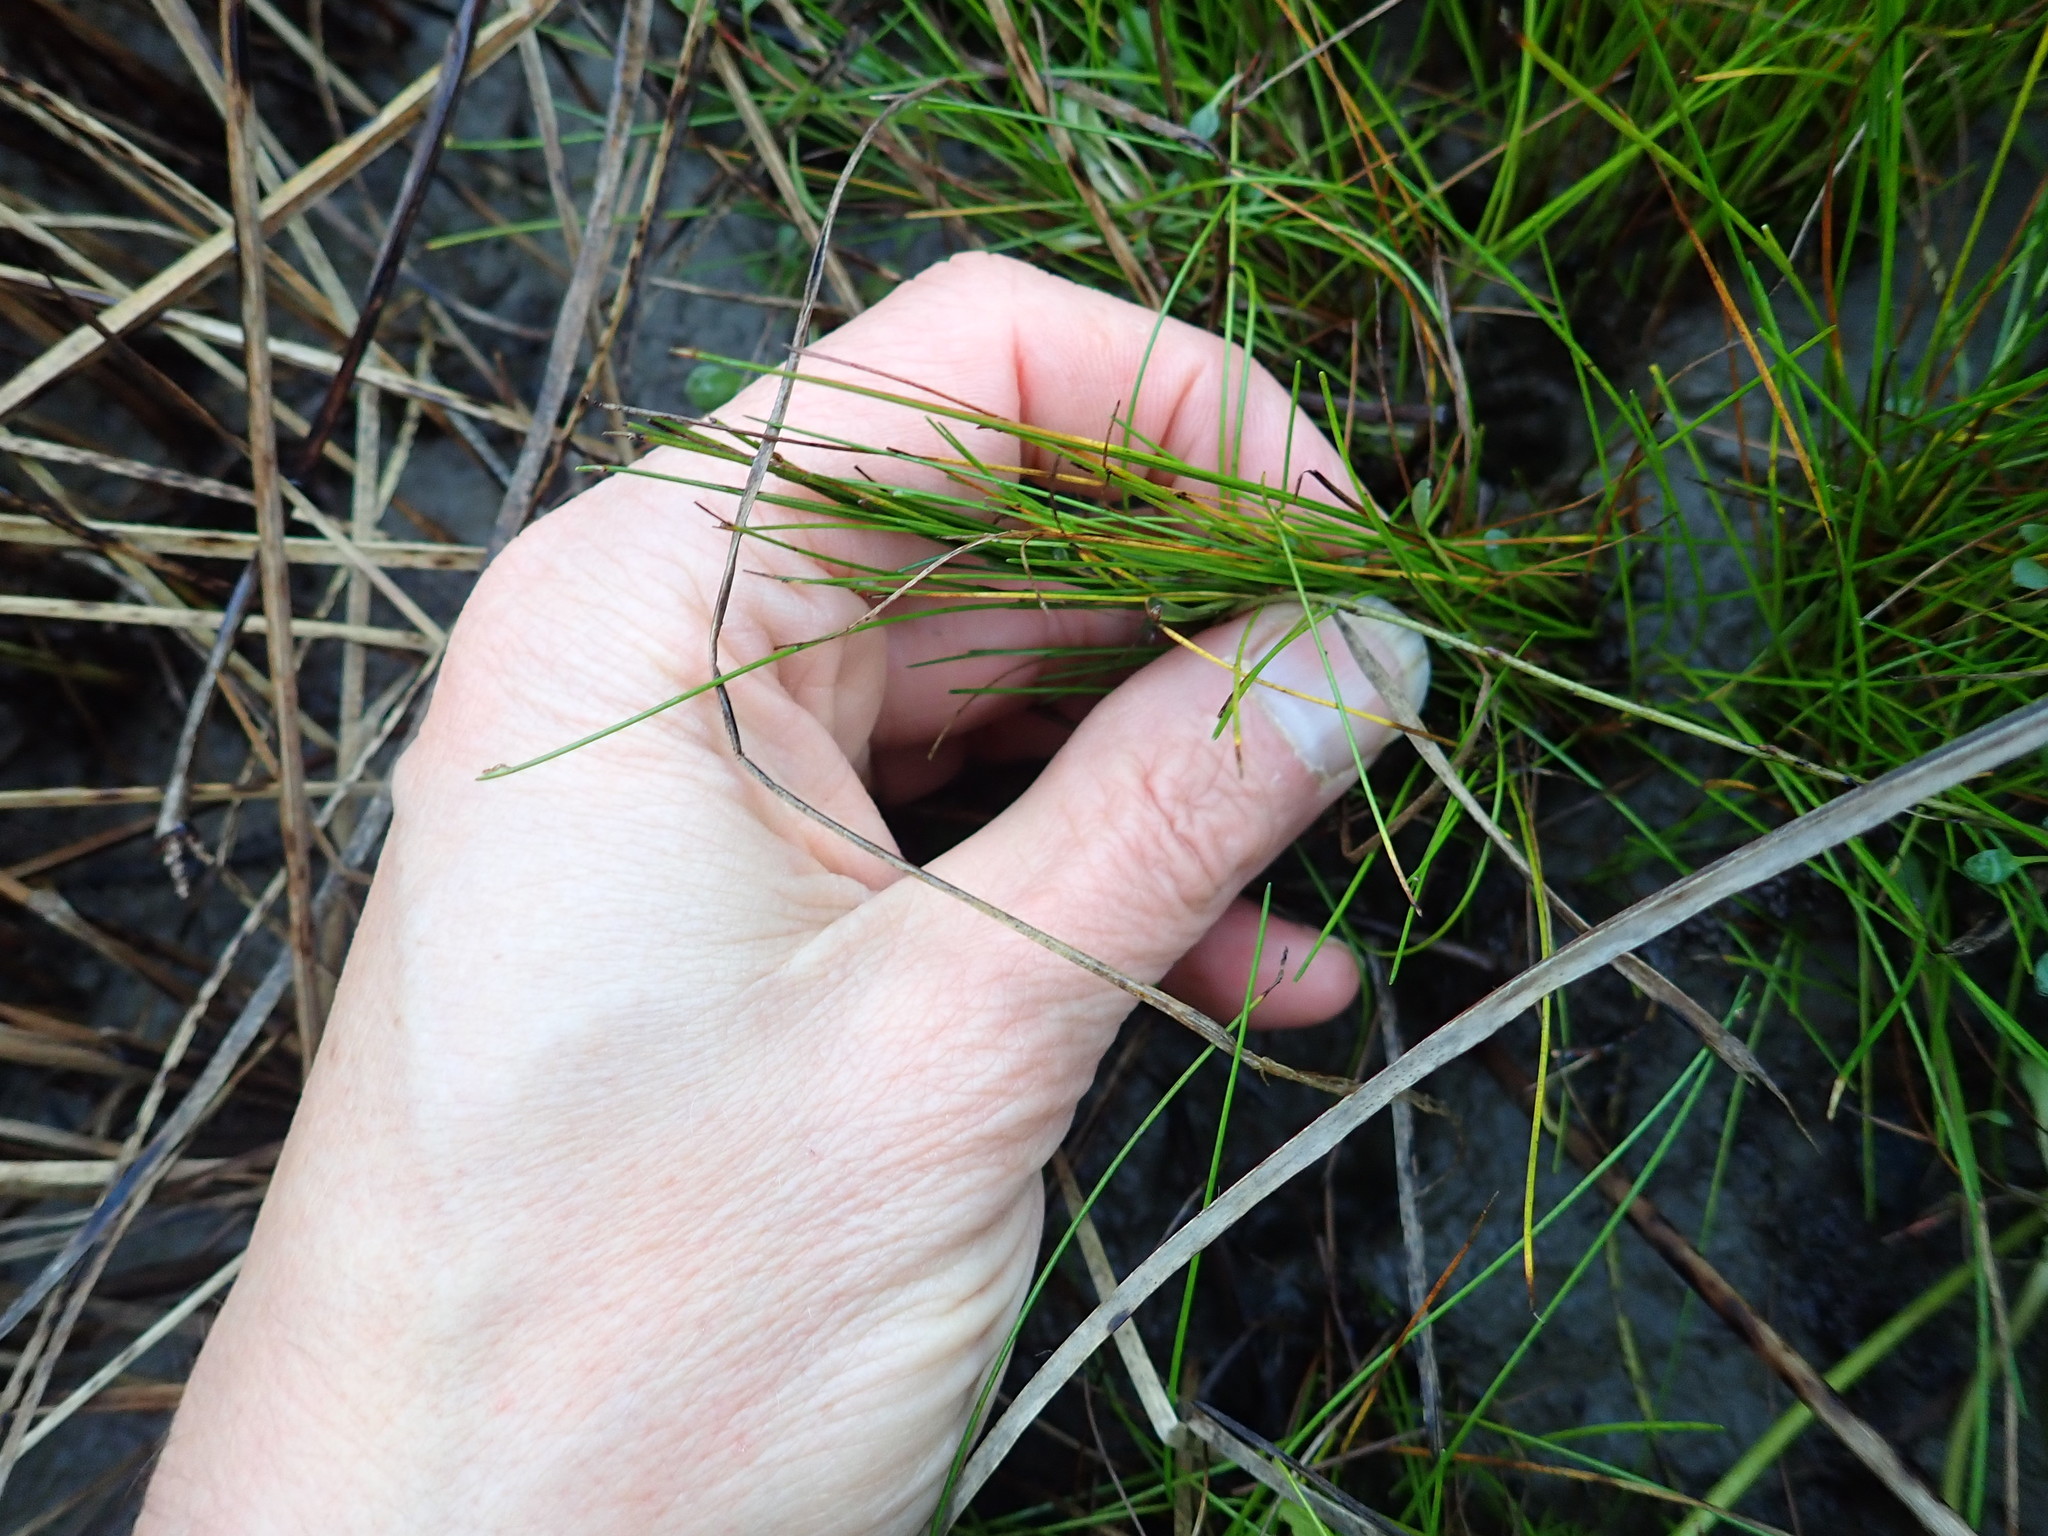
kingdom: Plantae
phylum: Tracheophyta
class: Liliopsida
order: Poales
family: Cyperaceae
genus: Isolepis
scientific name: Isolepis cernua
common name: Slender club-rush
